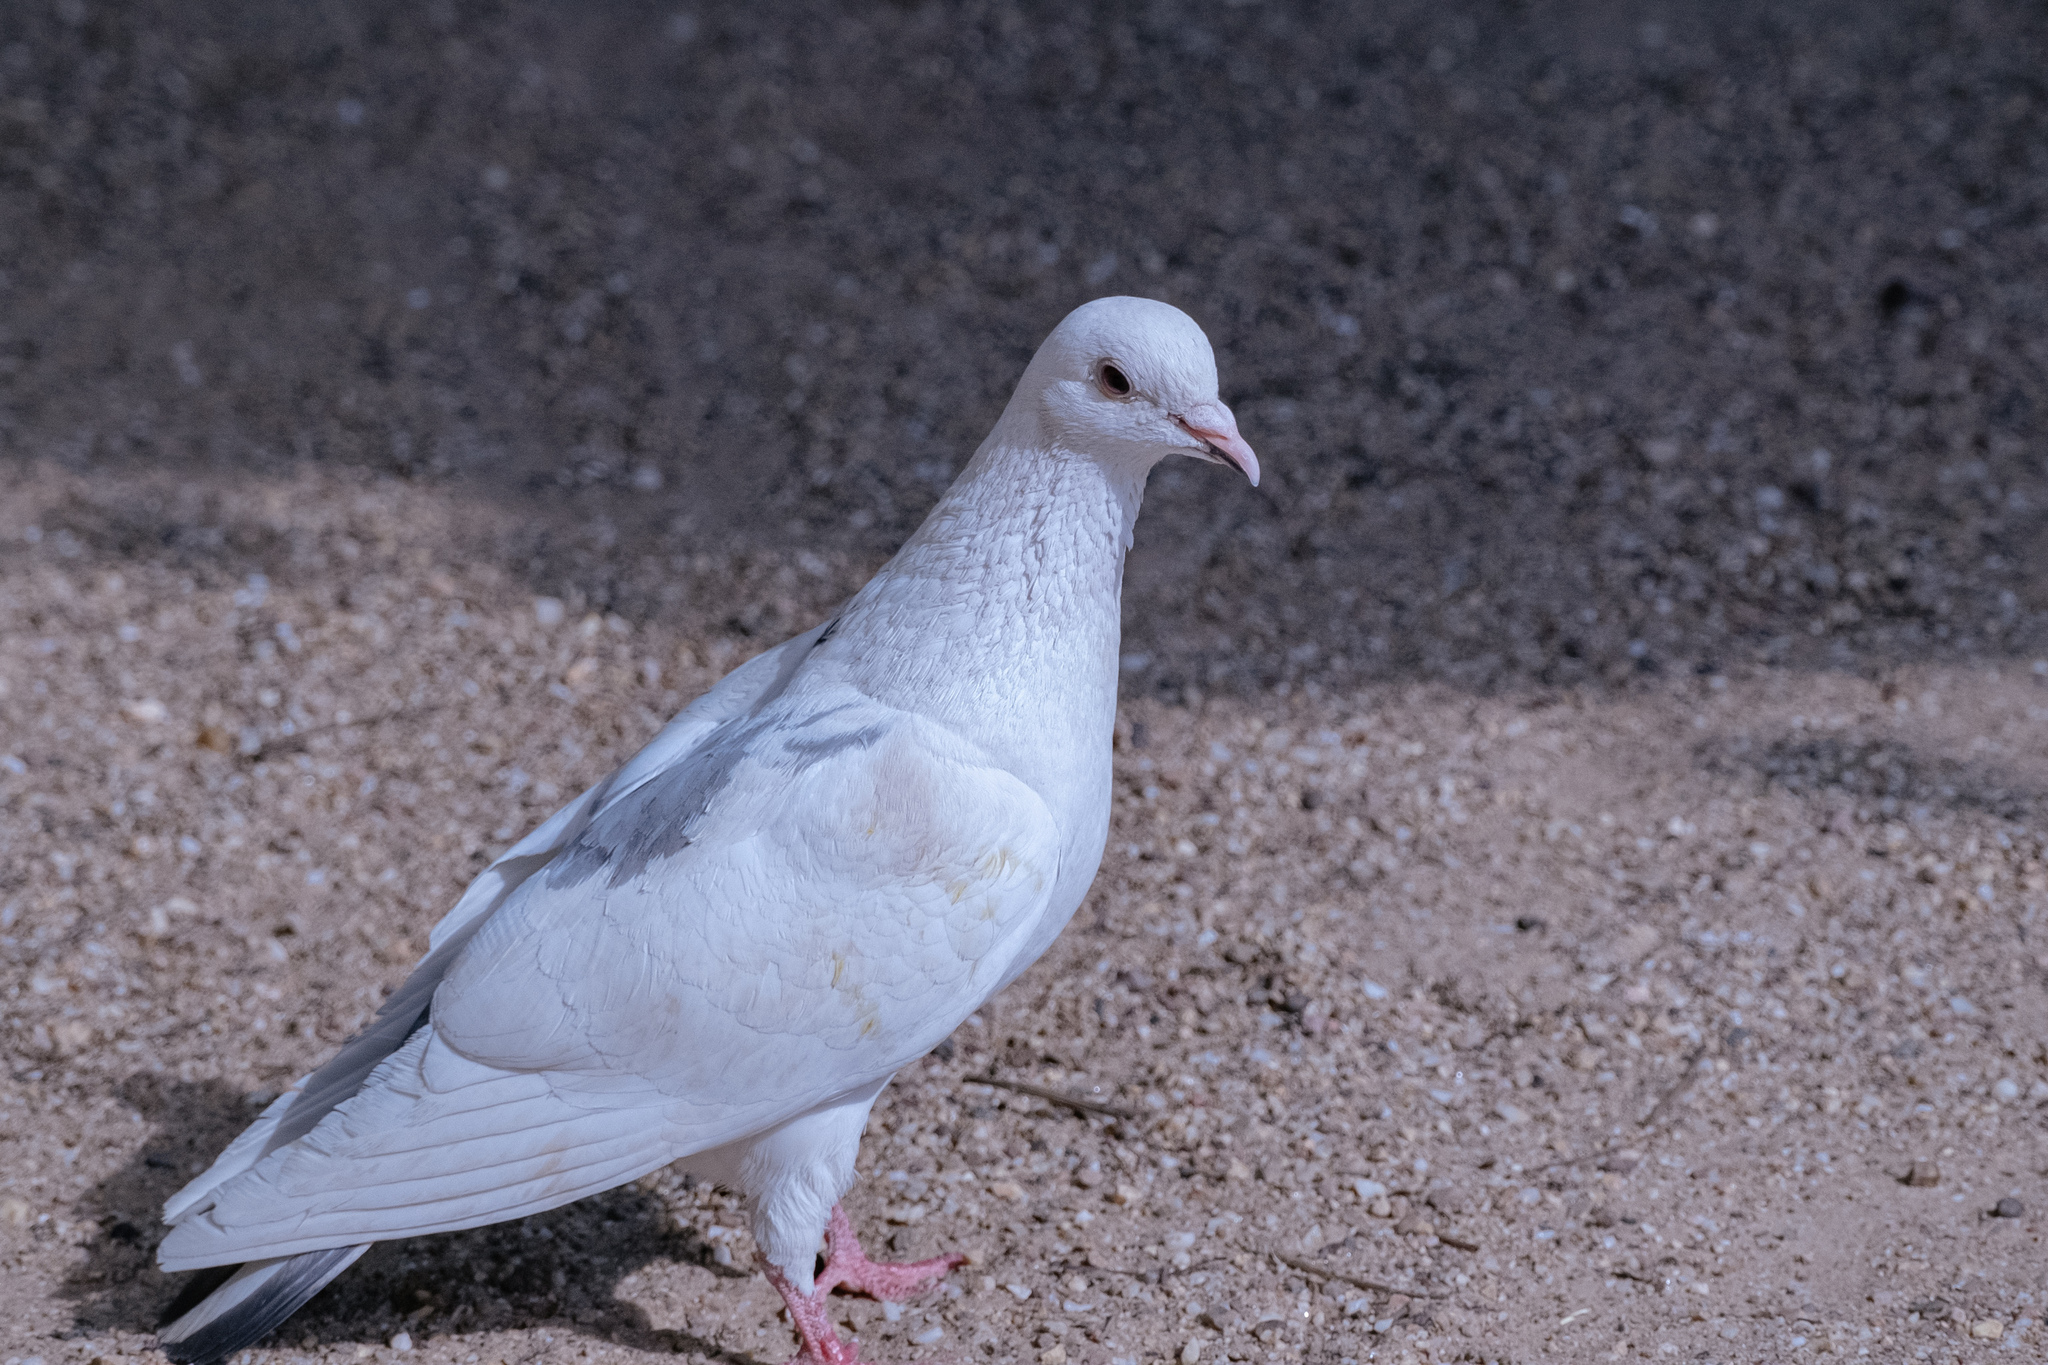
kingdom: Animalia
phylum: Chordata
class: Aves
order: Columbiformes
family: Columbidae
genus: Columba
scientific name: Columba livia
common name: Rock pigeon
